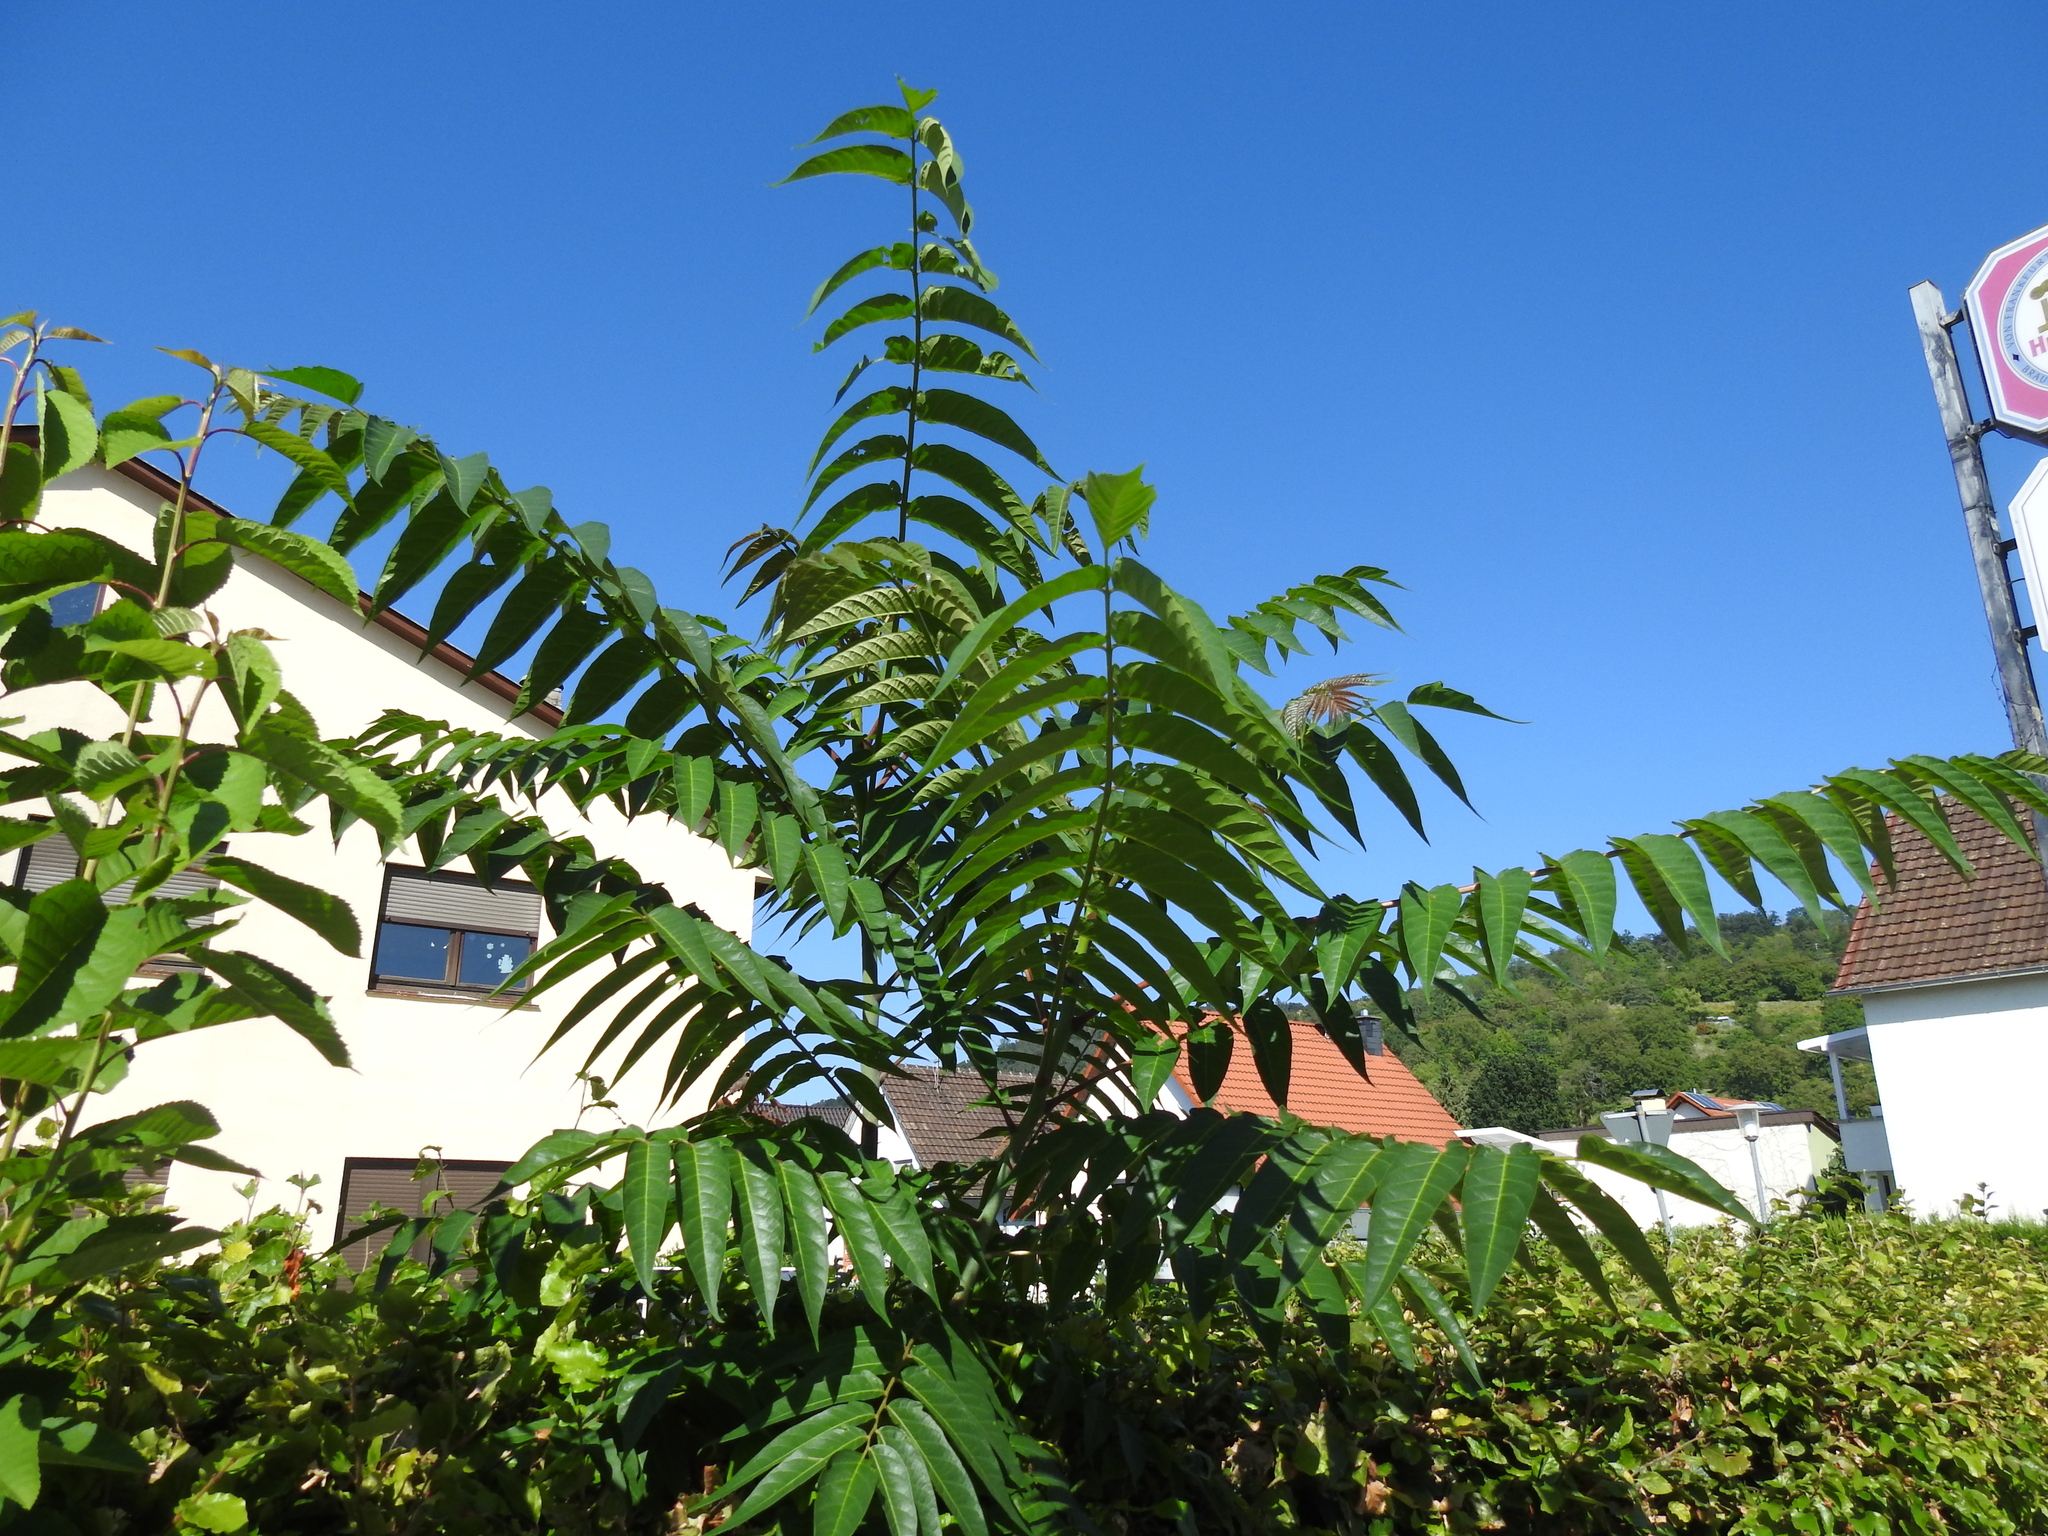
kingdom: Plantae
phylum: Tracheophyta
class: Magnoliopsida
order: Sapindales
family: Simaroubaceae
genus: Ailanthus
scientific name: Ailanthus altissima
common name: Tree-of-heaven
